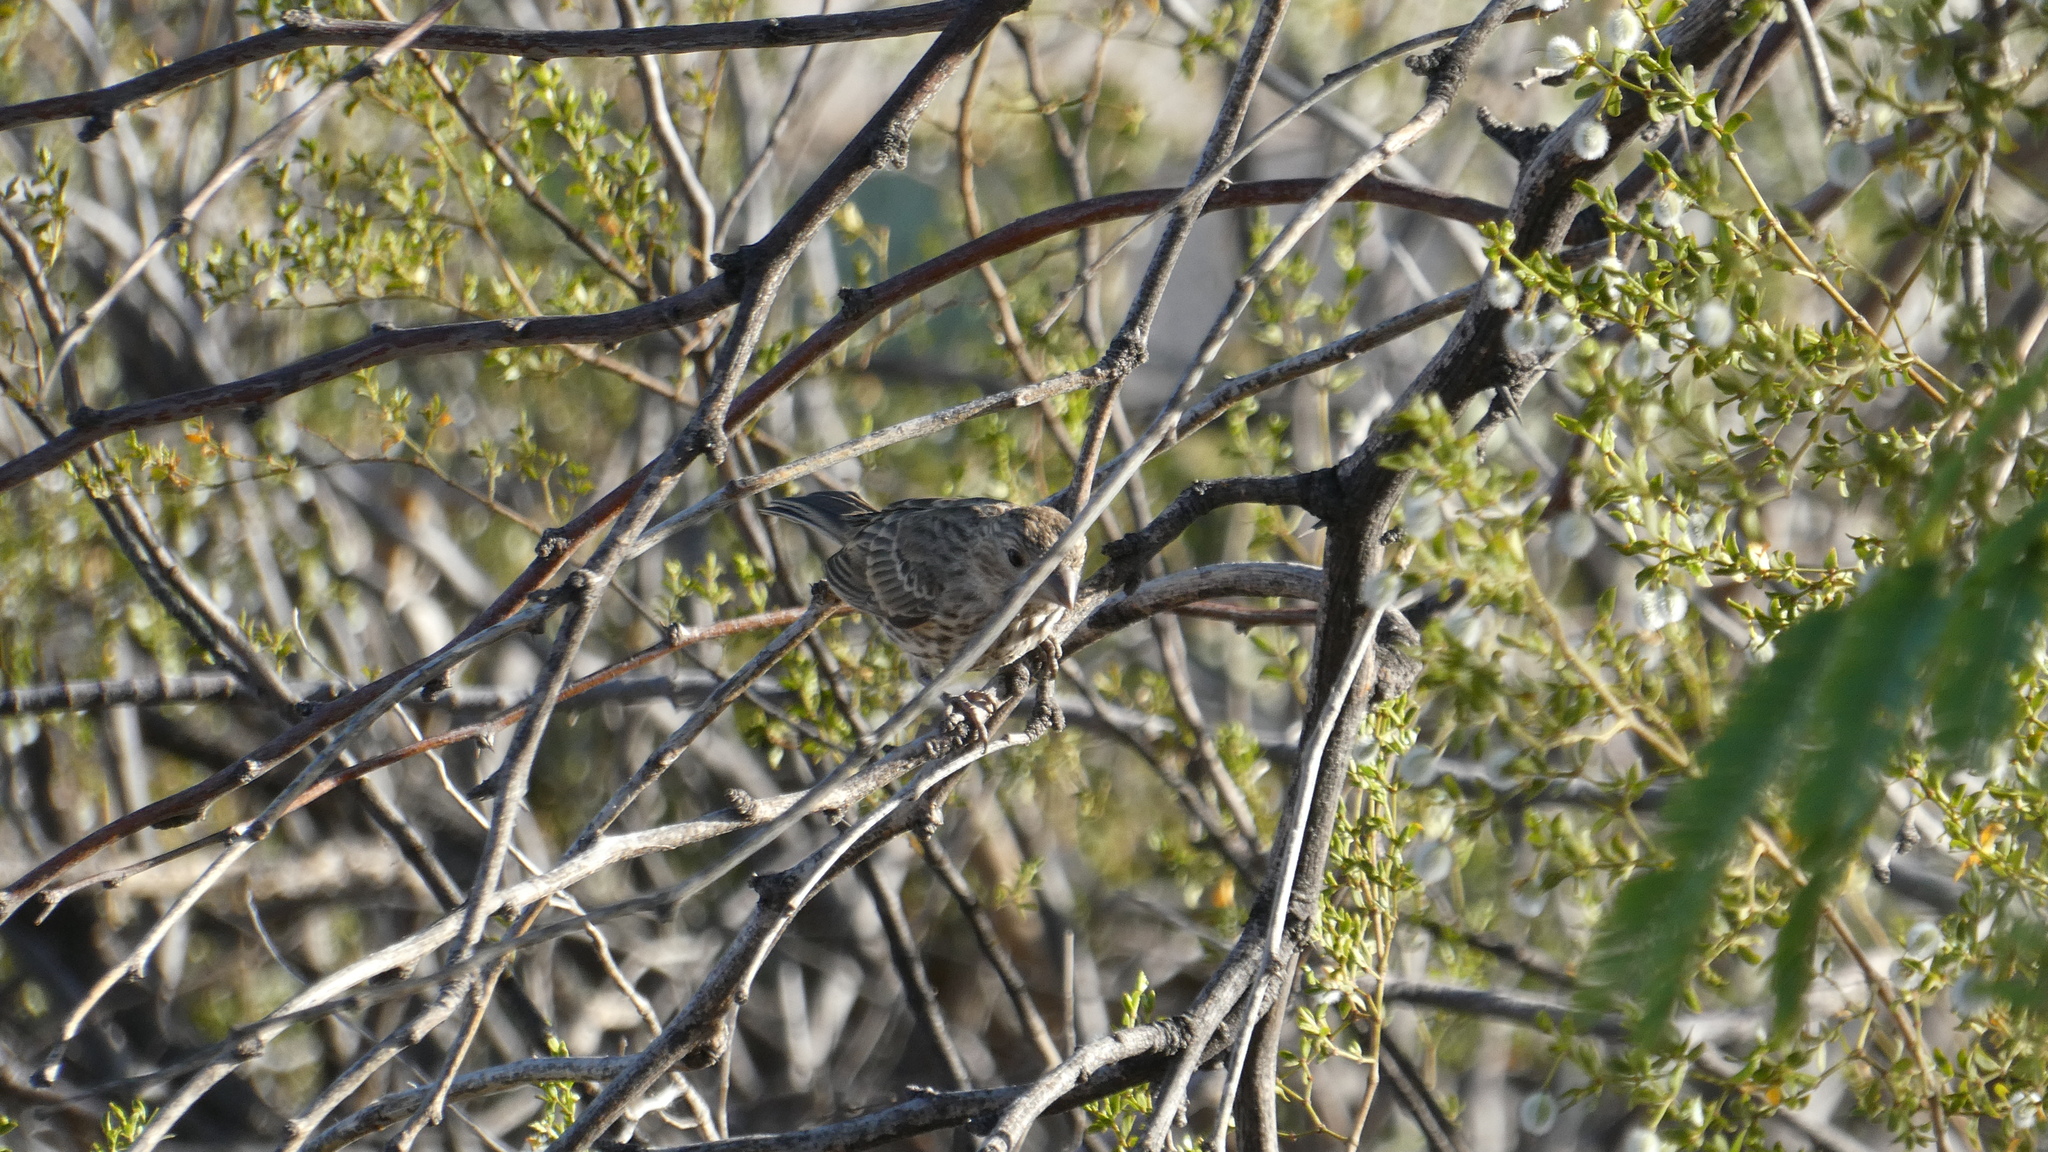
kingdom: Animalia
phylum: Chordata
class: Aves
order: Passeriformes
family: Fringillidae
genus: Haemorhous
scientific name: Haemorhous mexicanus
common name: House finch
